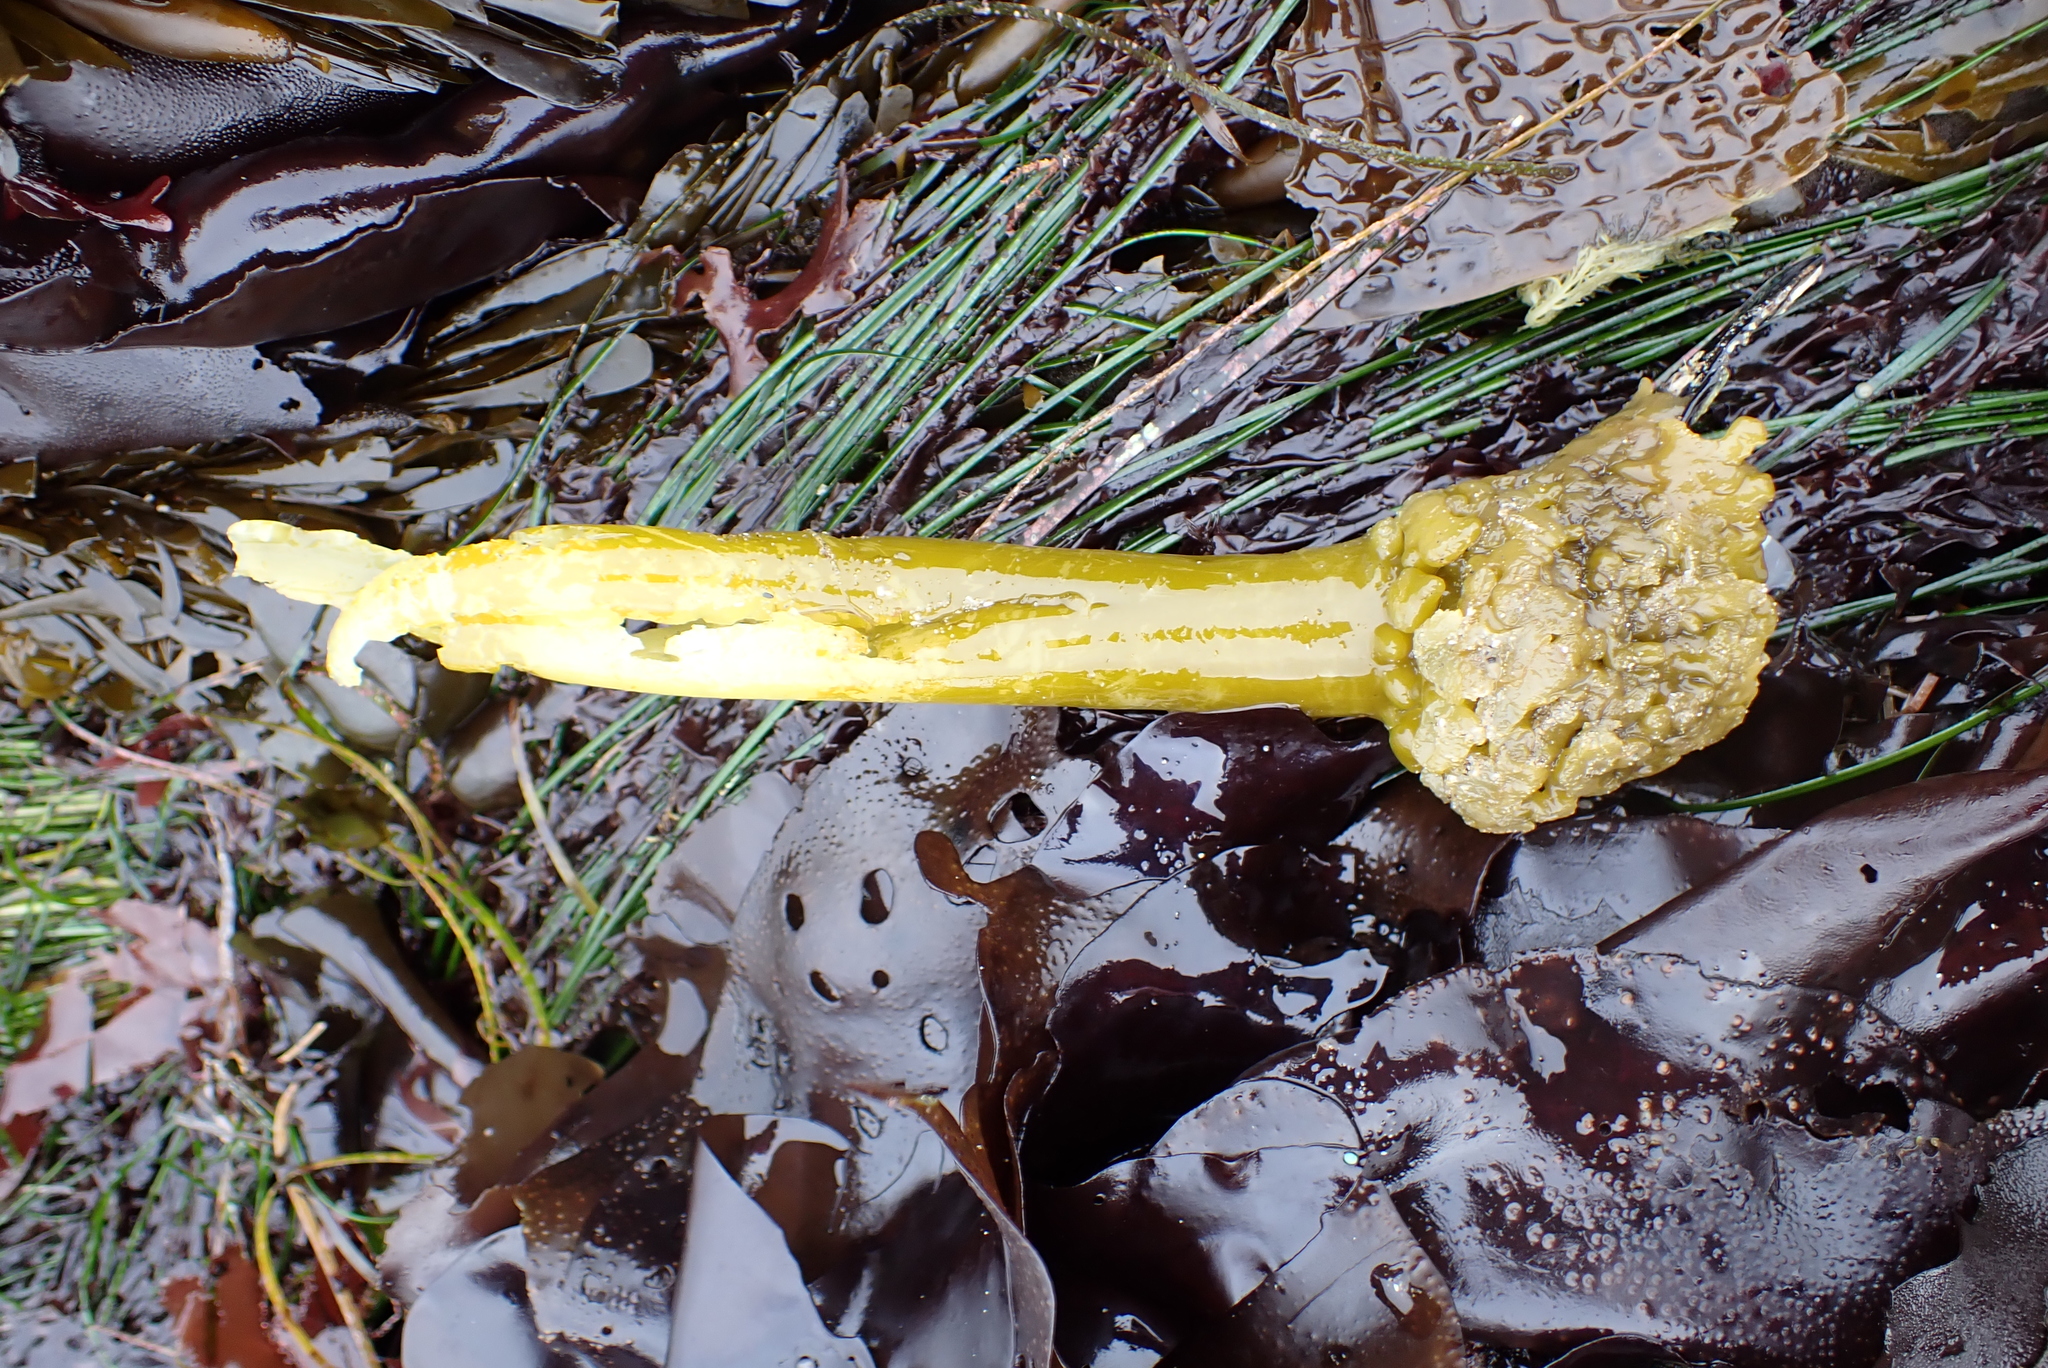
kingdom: Chromista
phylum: Ochrophyta
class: Phaeophyceae
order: Laminariales
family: Laminariaceae
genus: Postelsia
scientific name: Postelsia palmiformis
